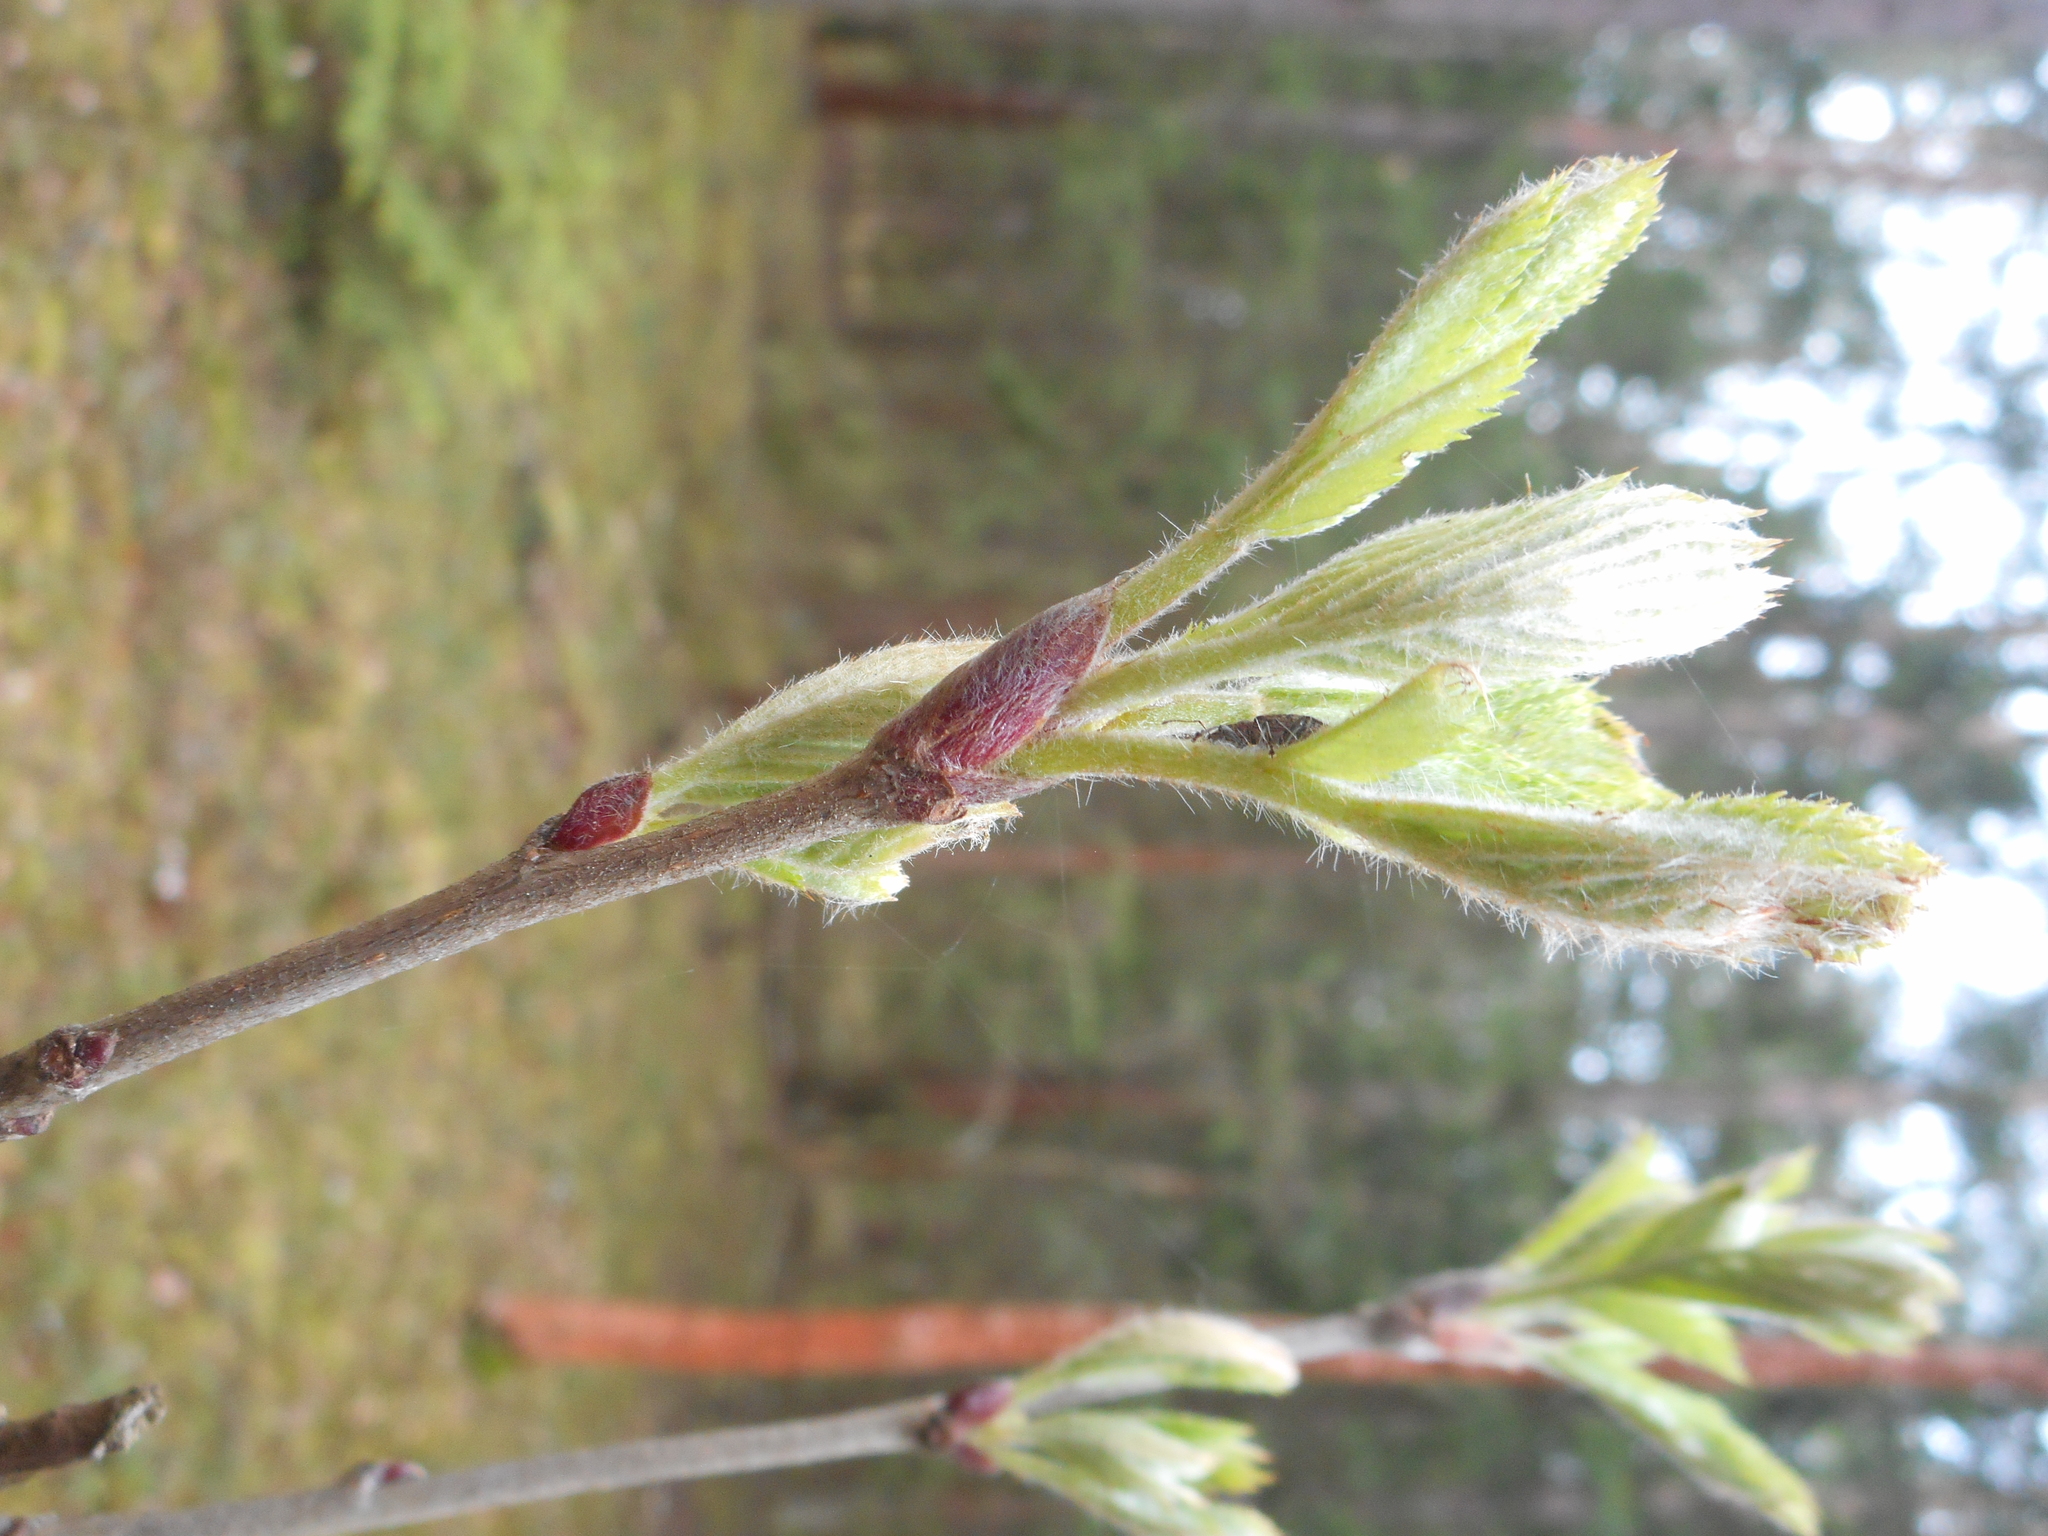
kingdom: Plantae
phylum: Tracheophyta
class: Magnoliopsida
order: Rosales
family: Rosaceae
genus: Sorbus
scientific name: Sorbus aucuparia
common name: Rowan
